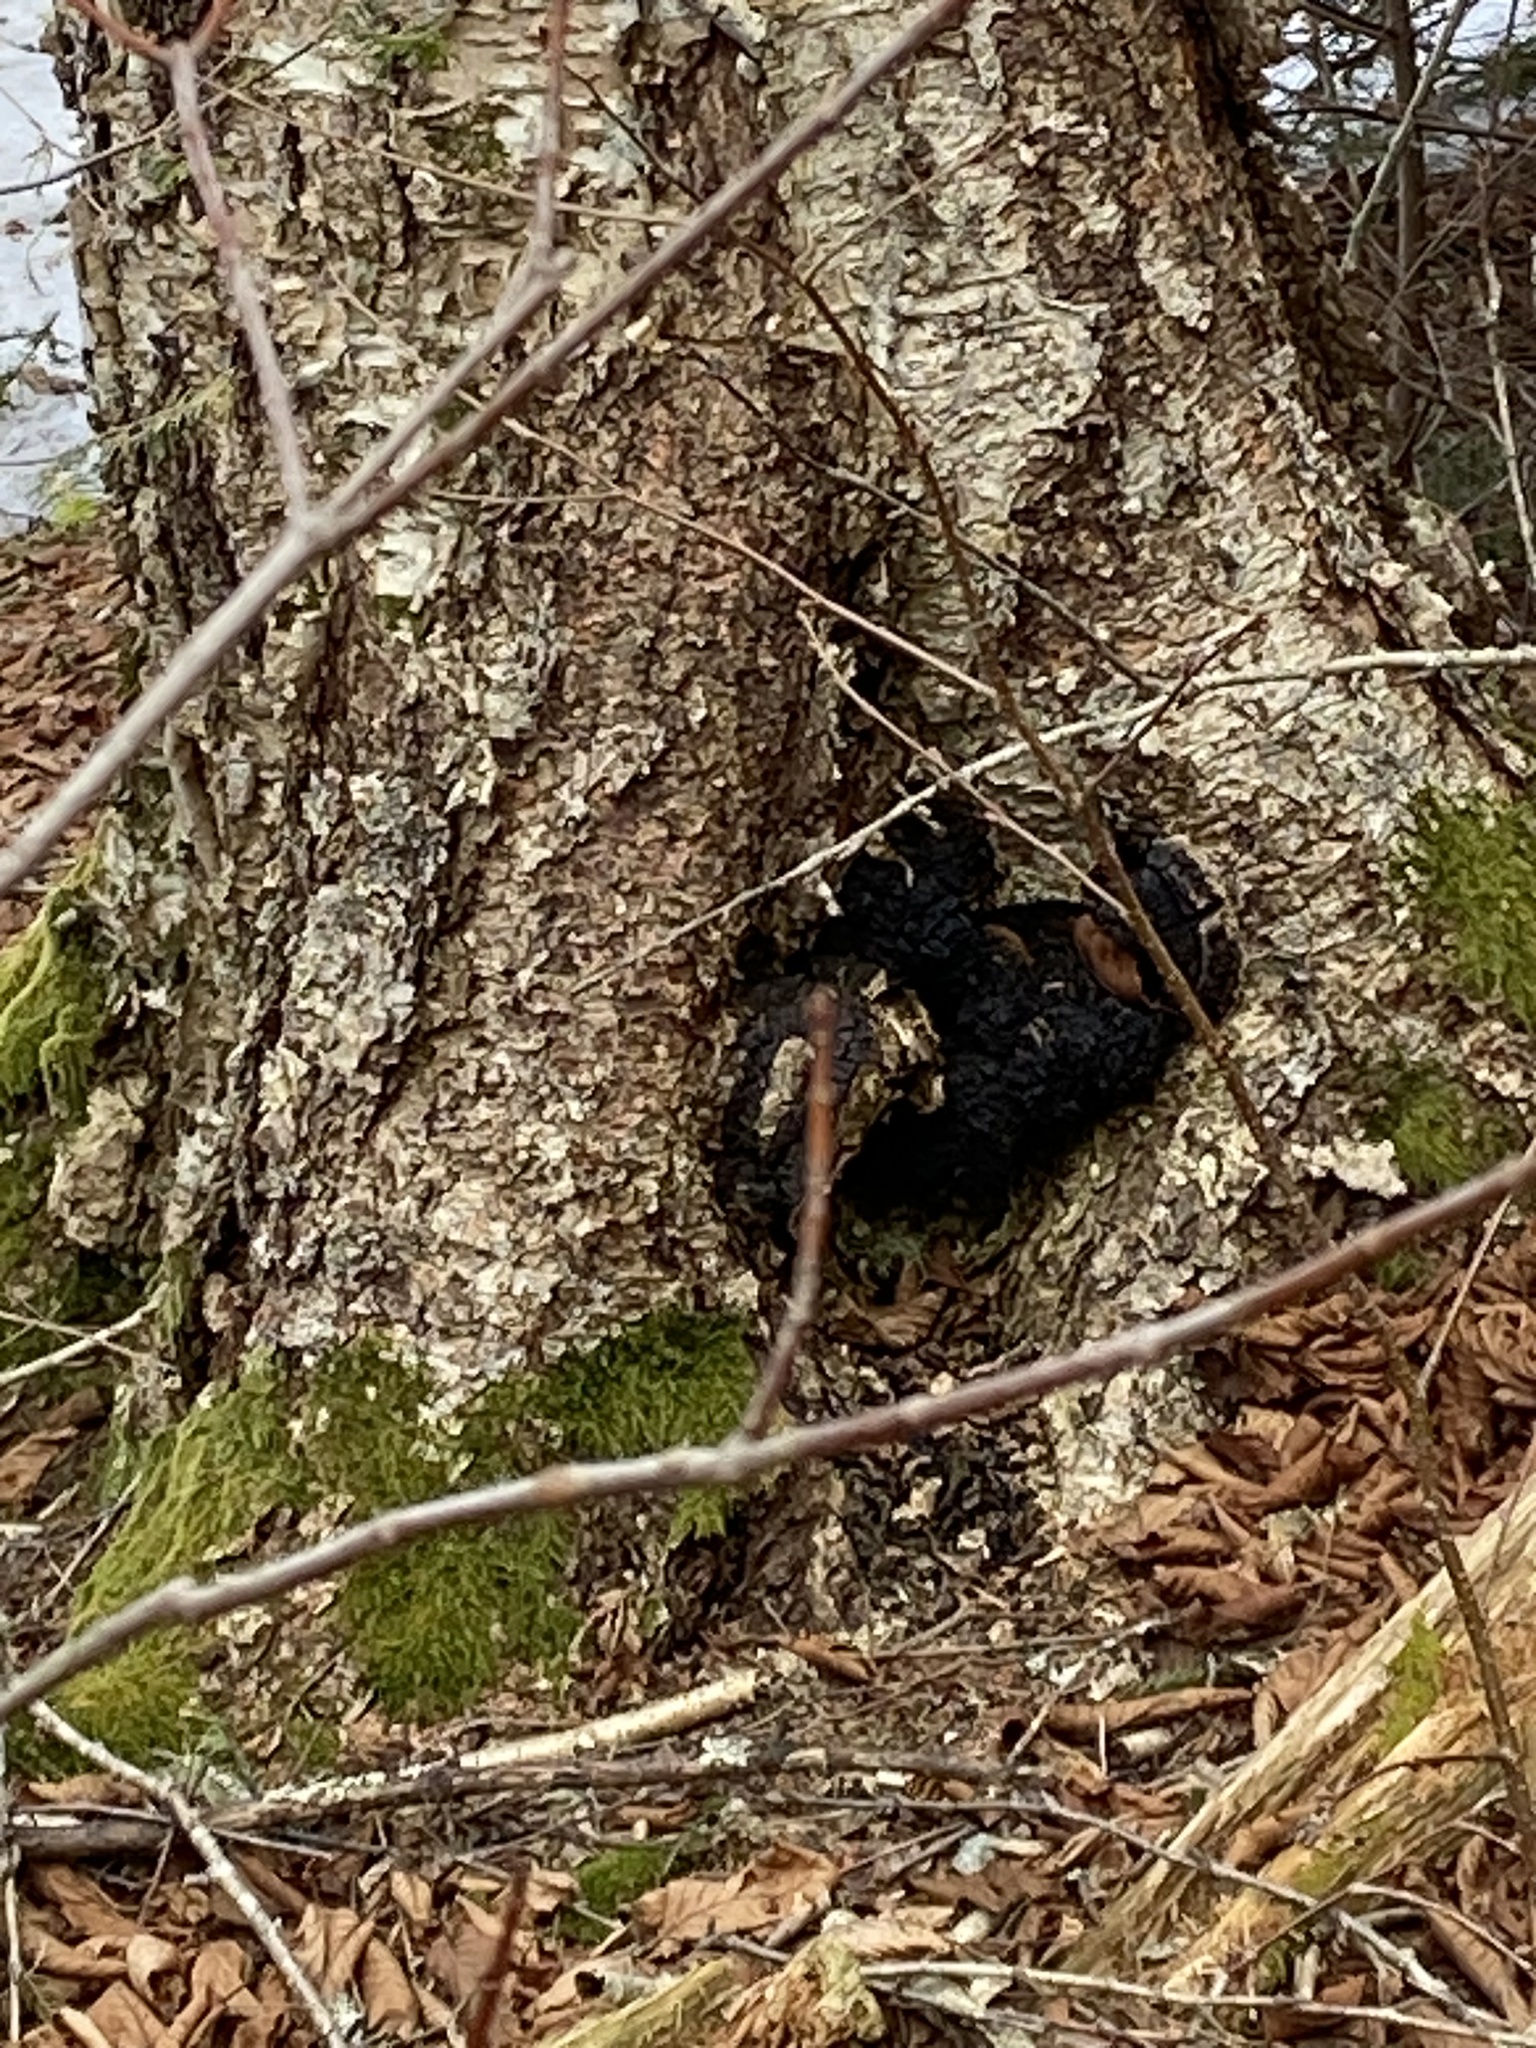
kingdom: Fungi
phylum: Basidiomycota
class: Agaricomycetes
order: Hymenochaetales
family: Hymenochaetaceae
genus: Inonotus
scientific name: Inonotus obliquus
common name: Chaga
